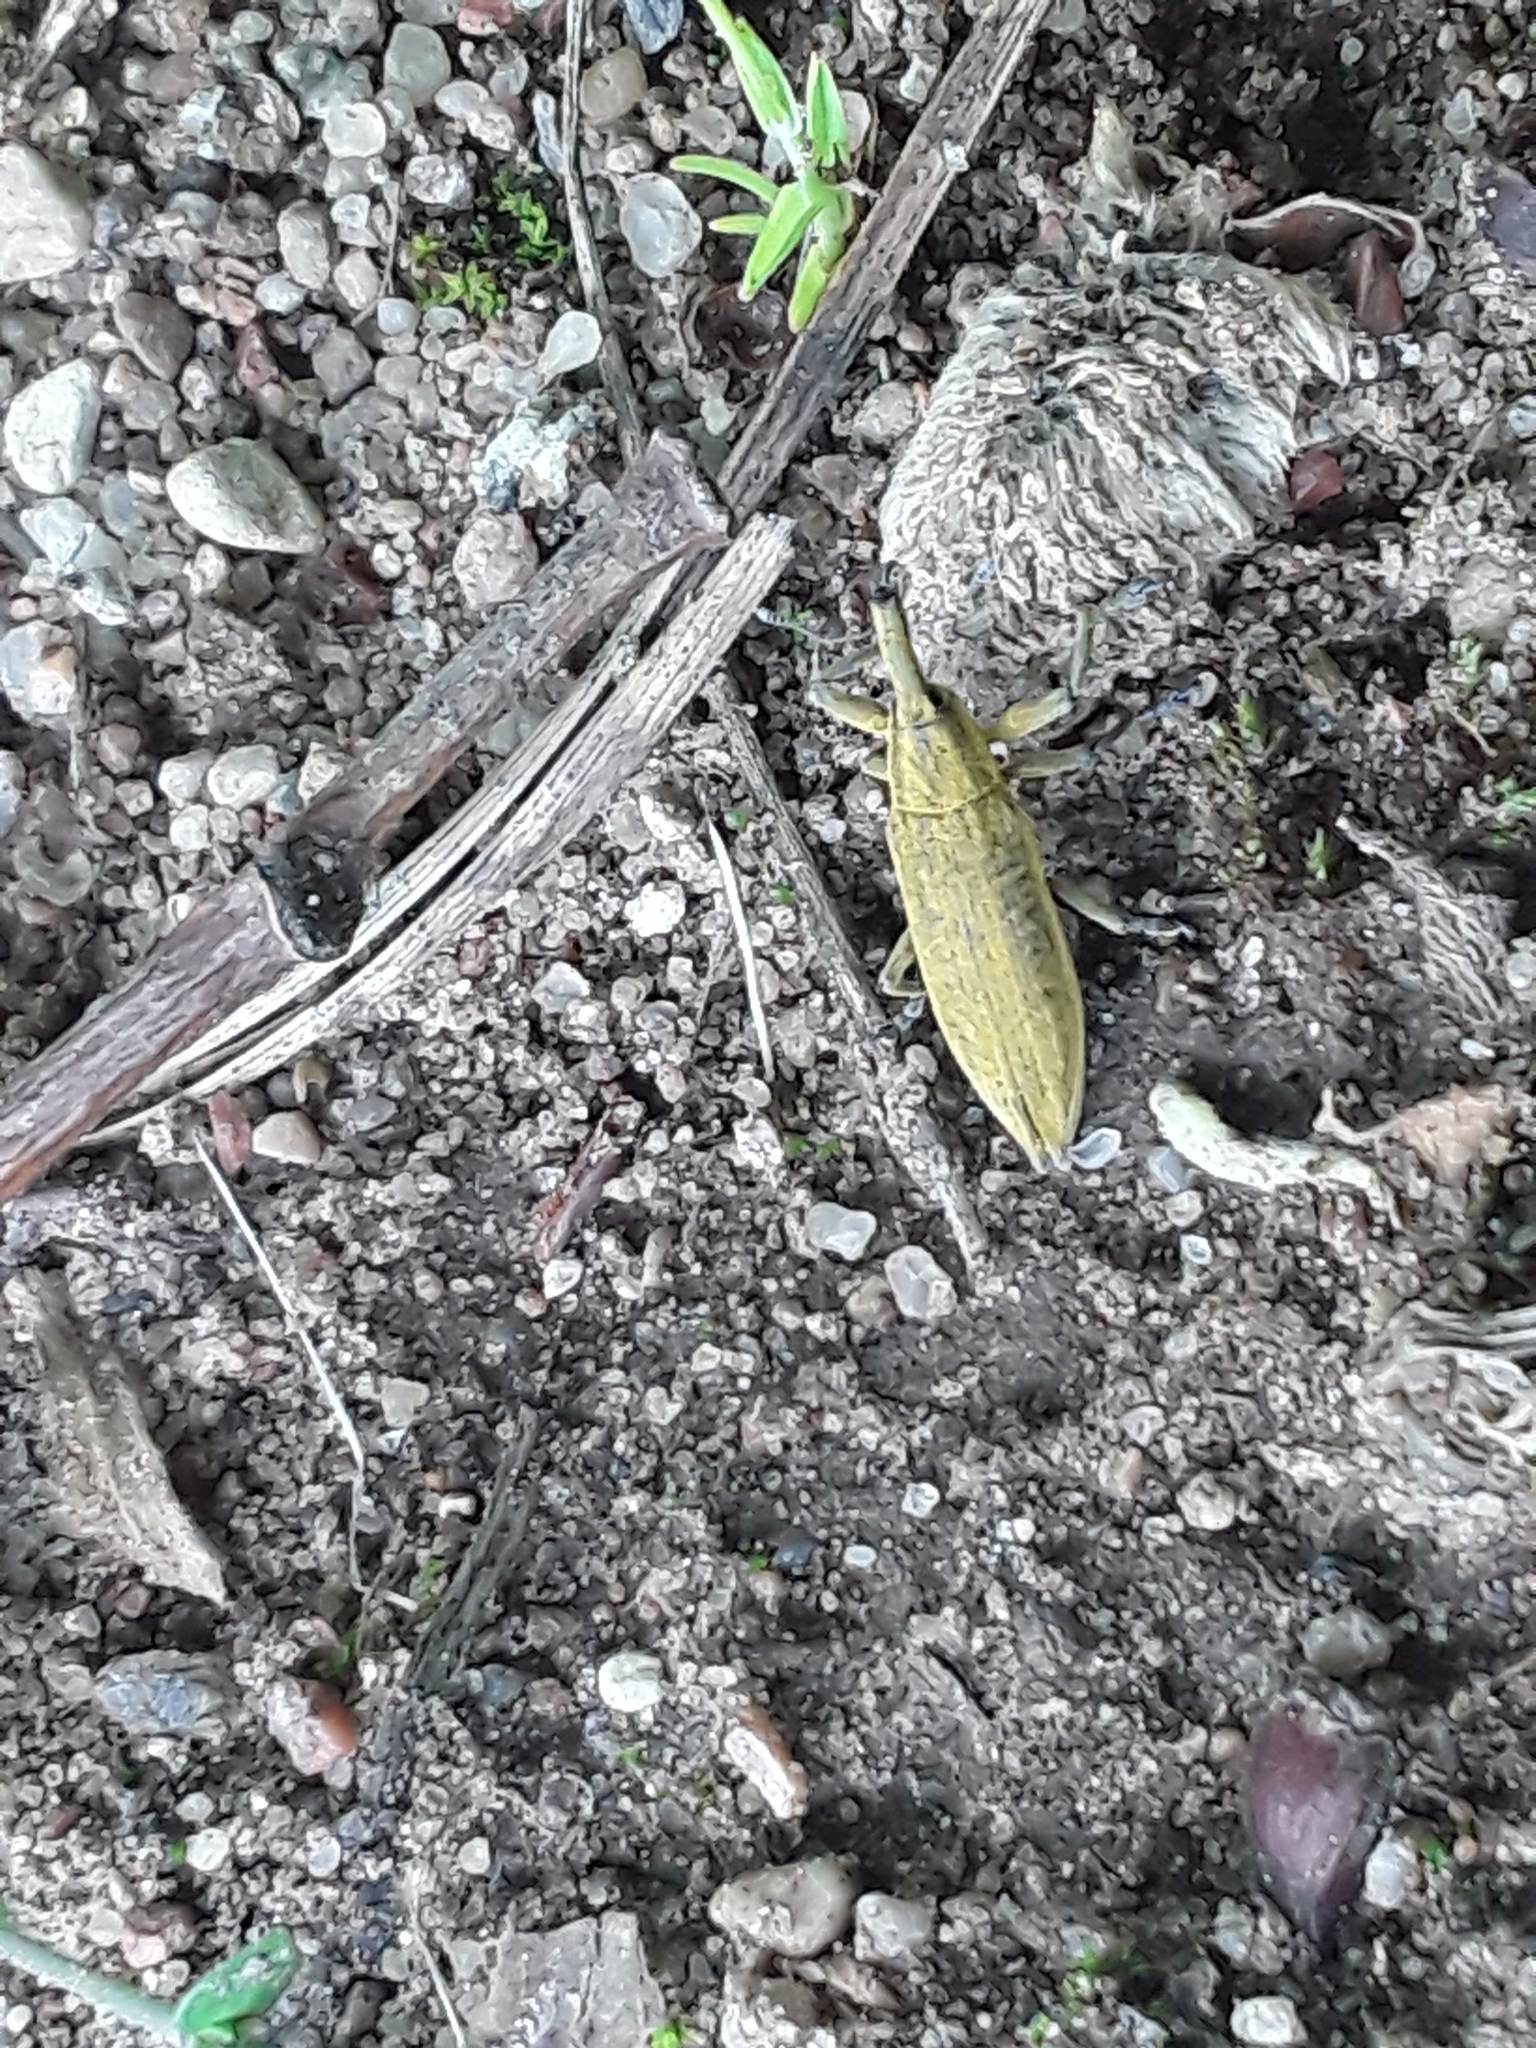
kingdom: Animalia
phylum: Arthropoda
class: Insecta
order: Coleoptera
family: Curculionidae
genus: Lixus
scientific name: Lixus iridis
